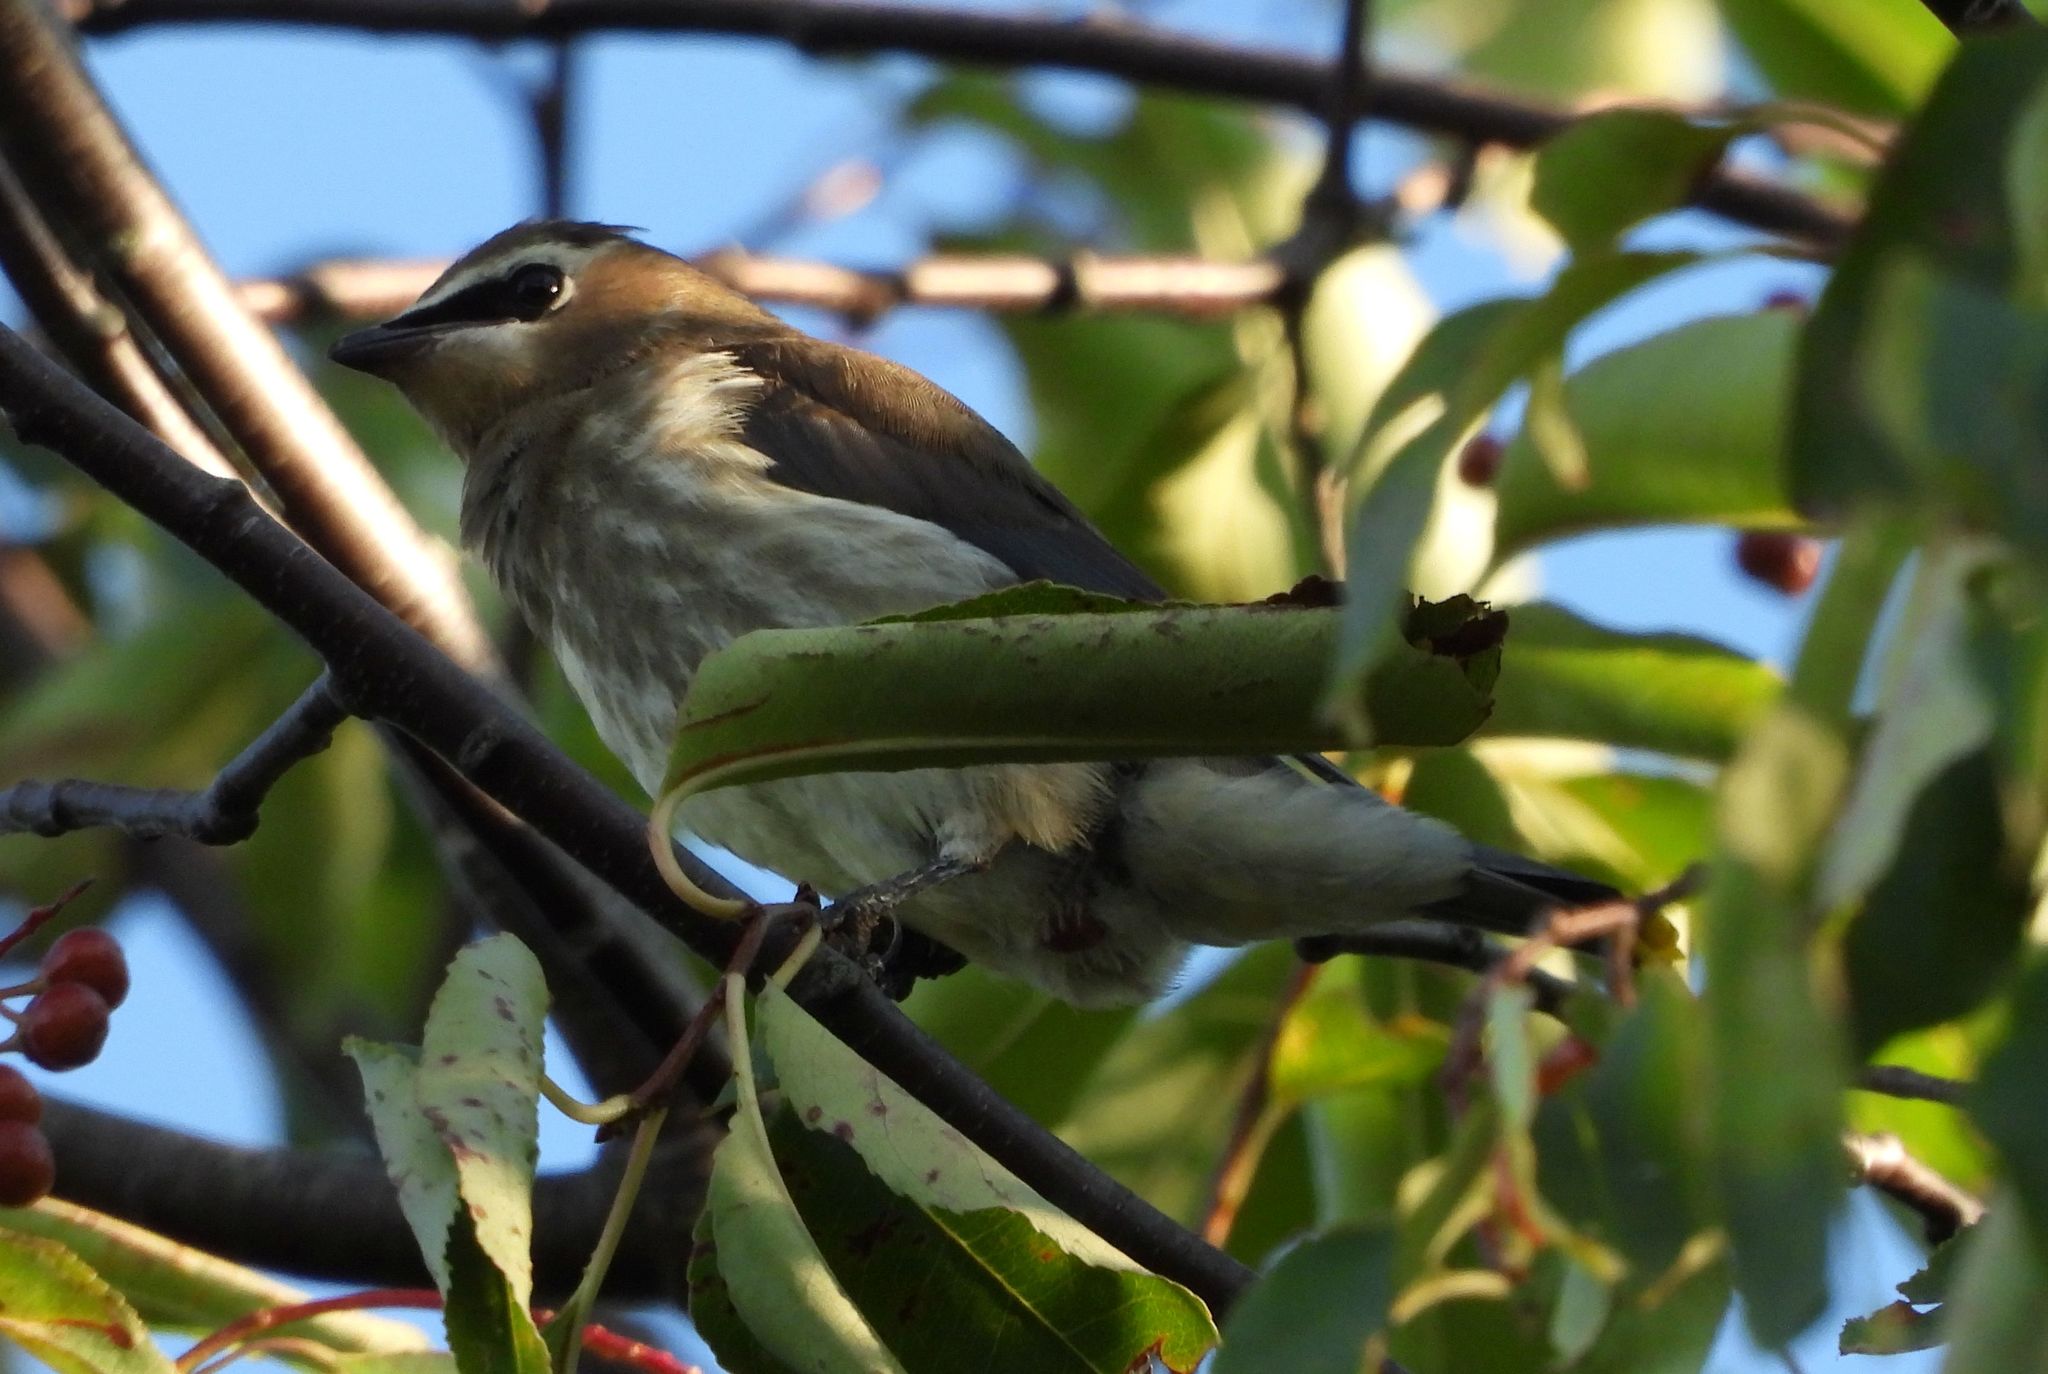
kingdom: Animalia
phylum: Chordata
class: Aves
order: Passeriformes
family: Bombycillidae
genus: Bombycilla
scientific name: Bombycilla cedrorum
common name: Cedar waxwing
